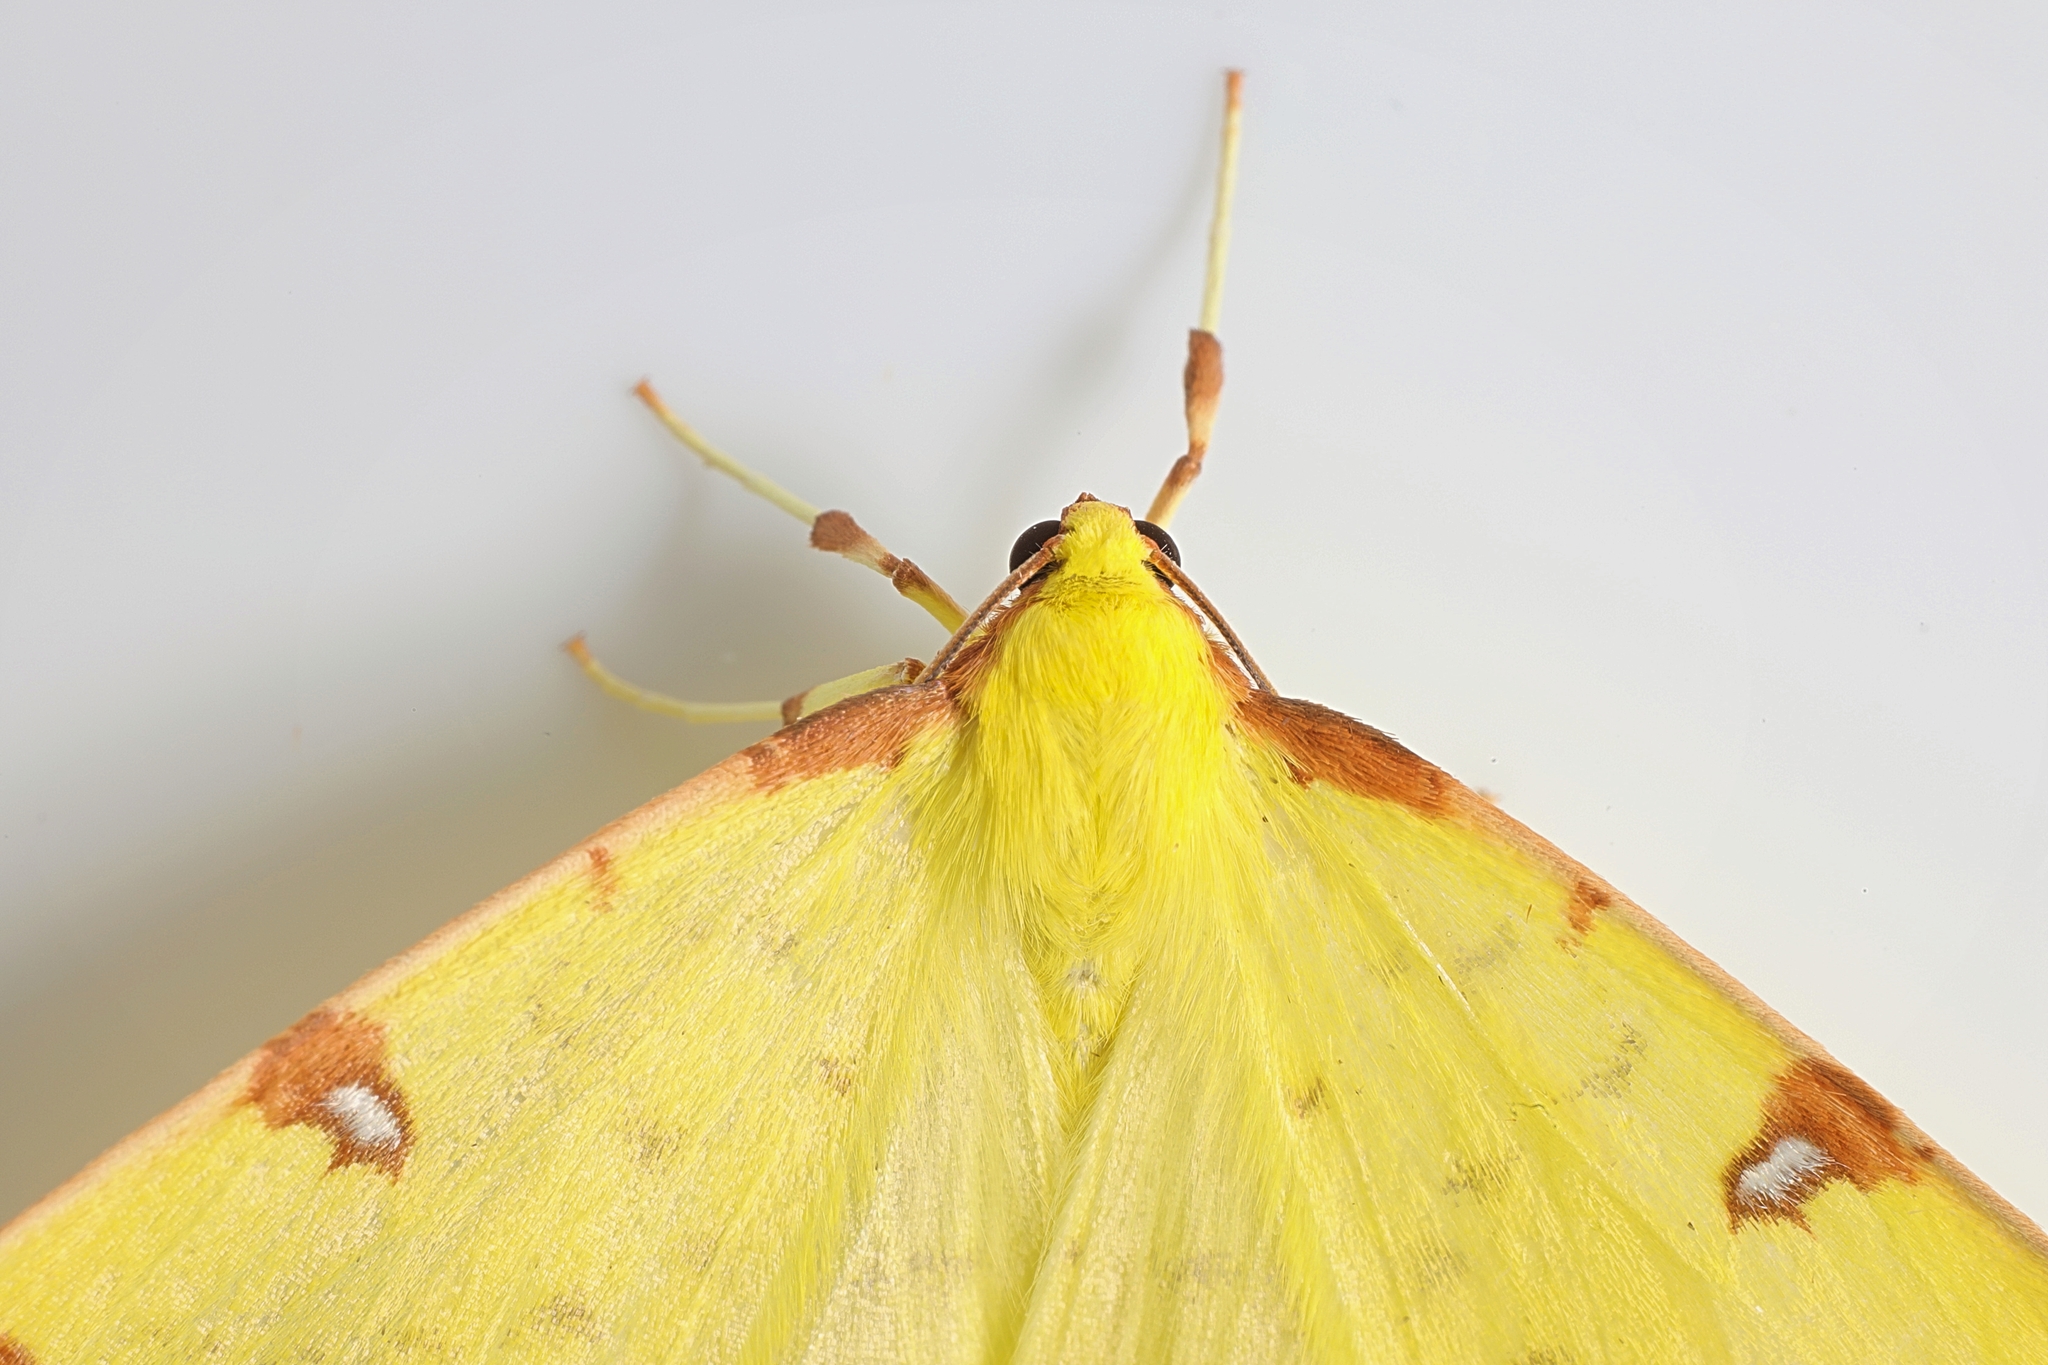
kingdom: Animalia
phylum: Arthropoda
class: Insecta
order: Lepidoptera
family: Geometridae
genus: Opisthograptis
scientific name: Opisthograptis luteolata
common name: Brimstone moth
